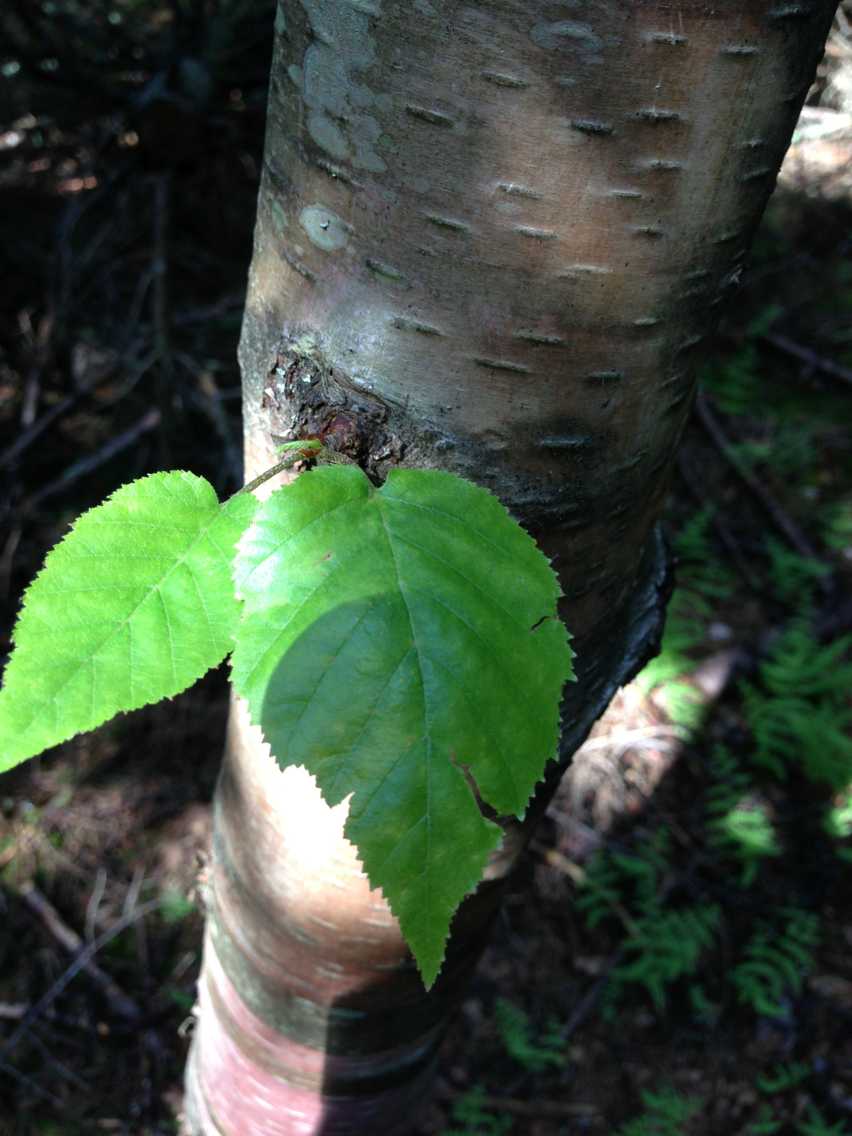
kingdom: Plantae
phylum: Tracheophyta
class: Magnoliopsida
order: Fagales
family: Betulaceae
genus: Betula
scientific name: Betula cordifolia
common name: Mountain white birch
